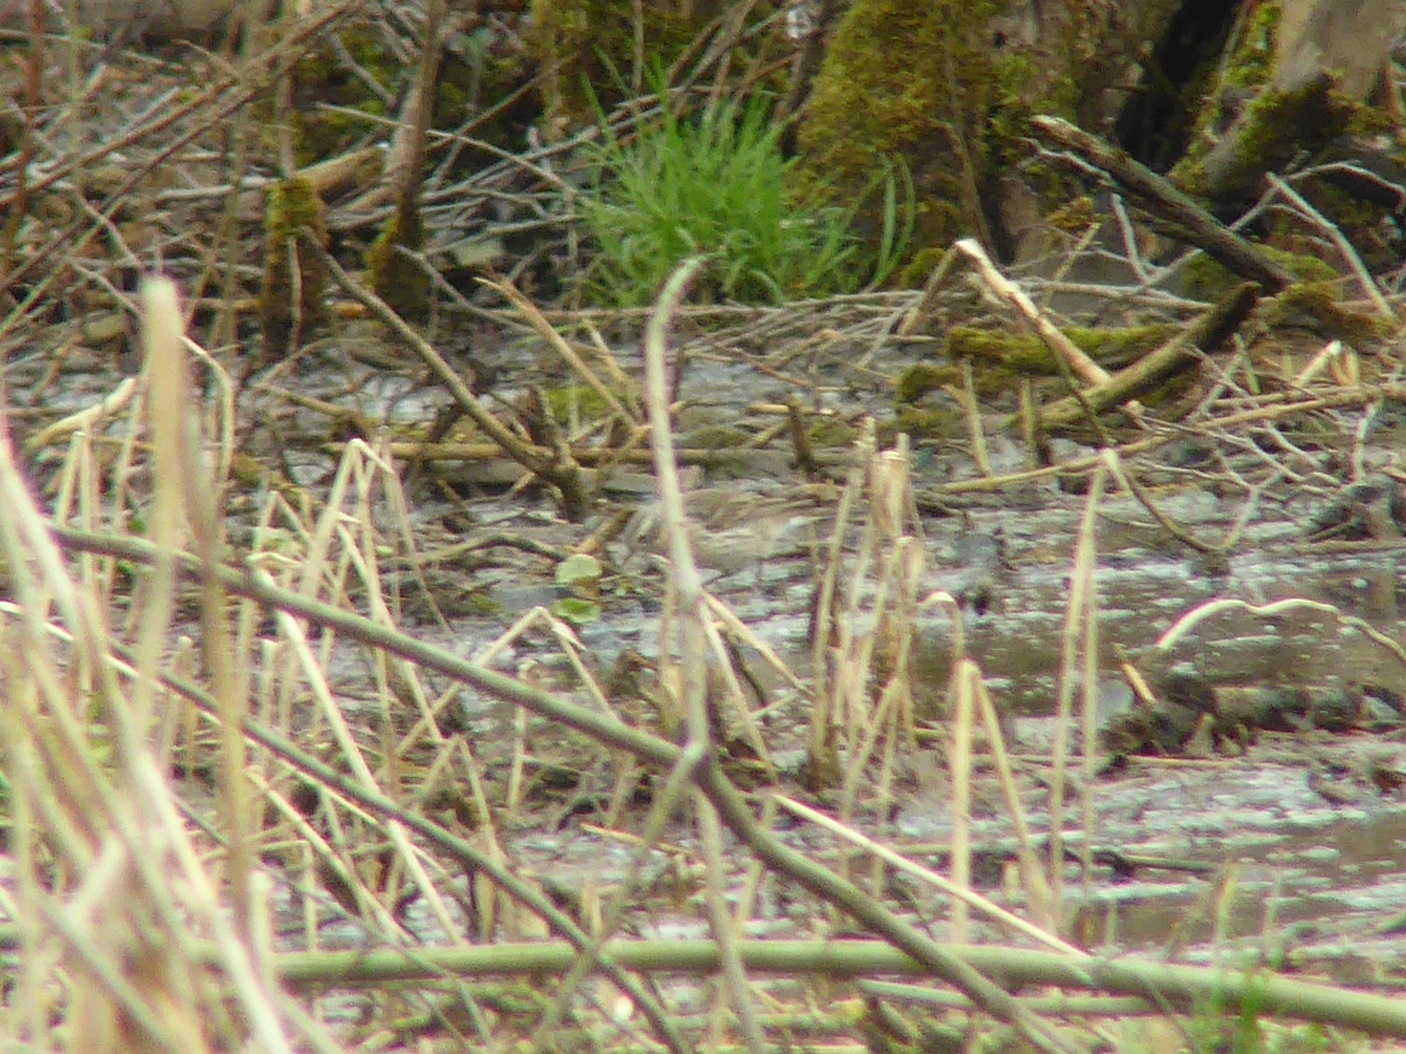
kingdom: Animalia
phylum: Chordata
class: Aves
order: Passeriformes
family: Motacillidae
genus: Anthus
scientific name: Anthus spinoletta
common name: Water pipit
